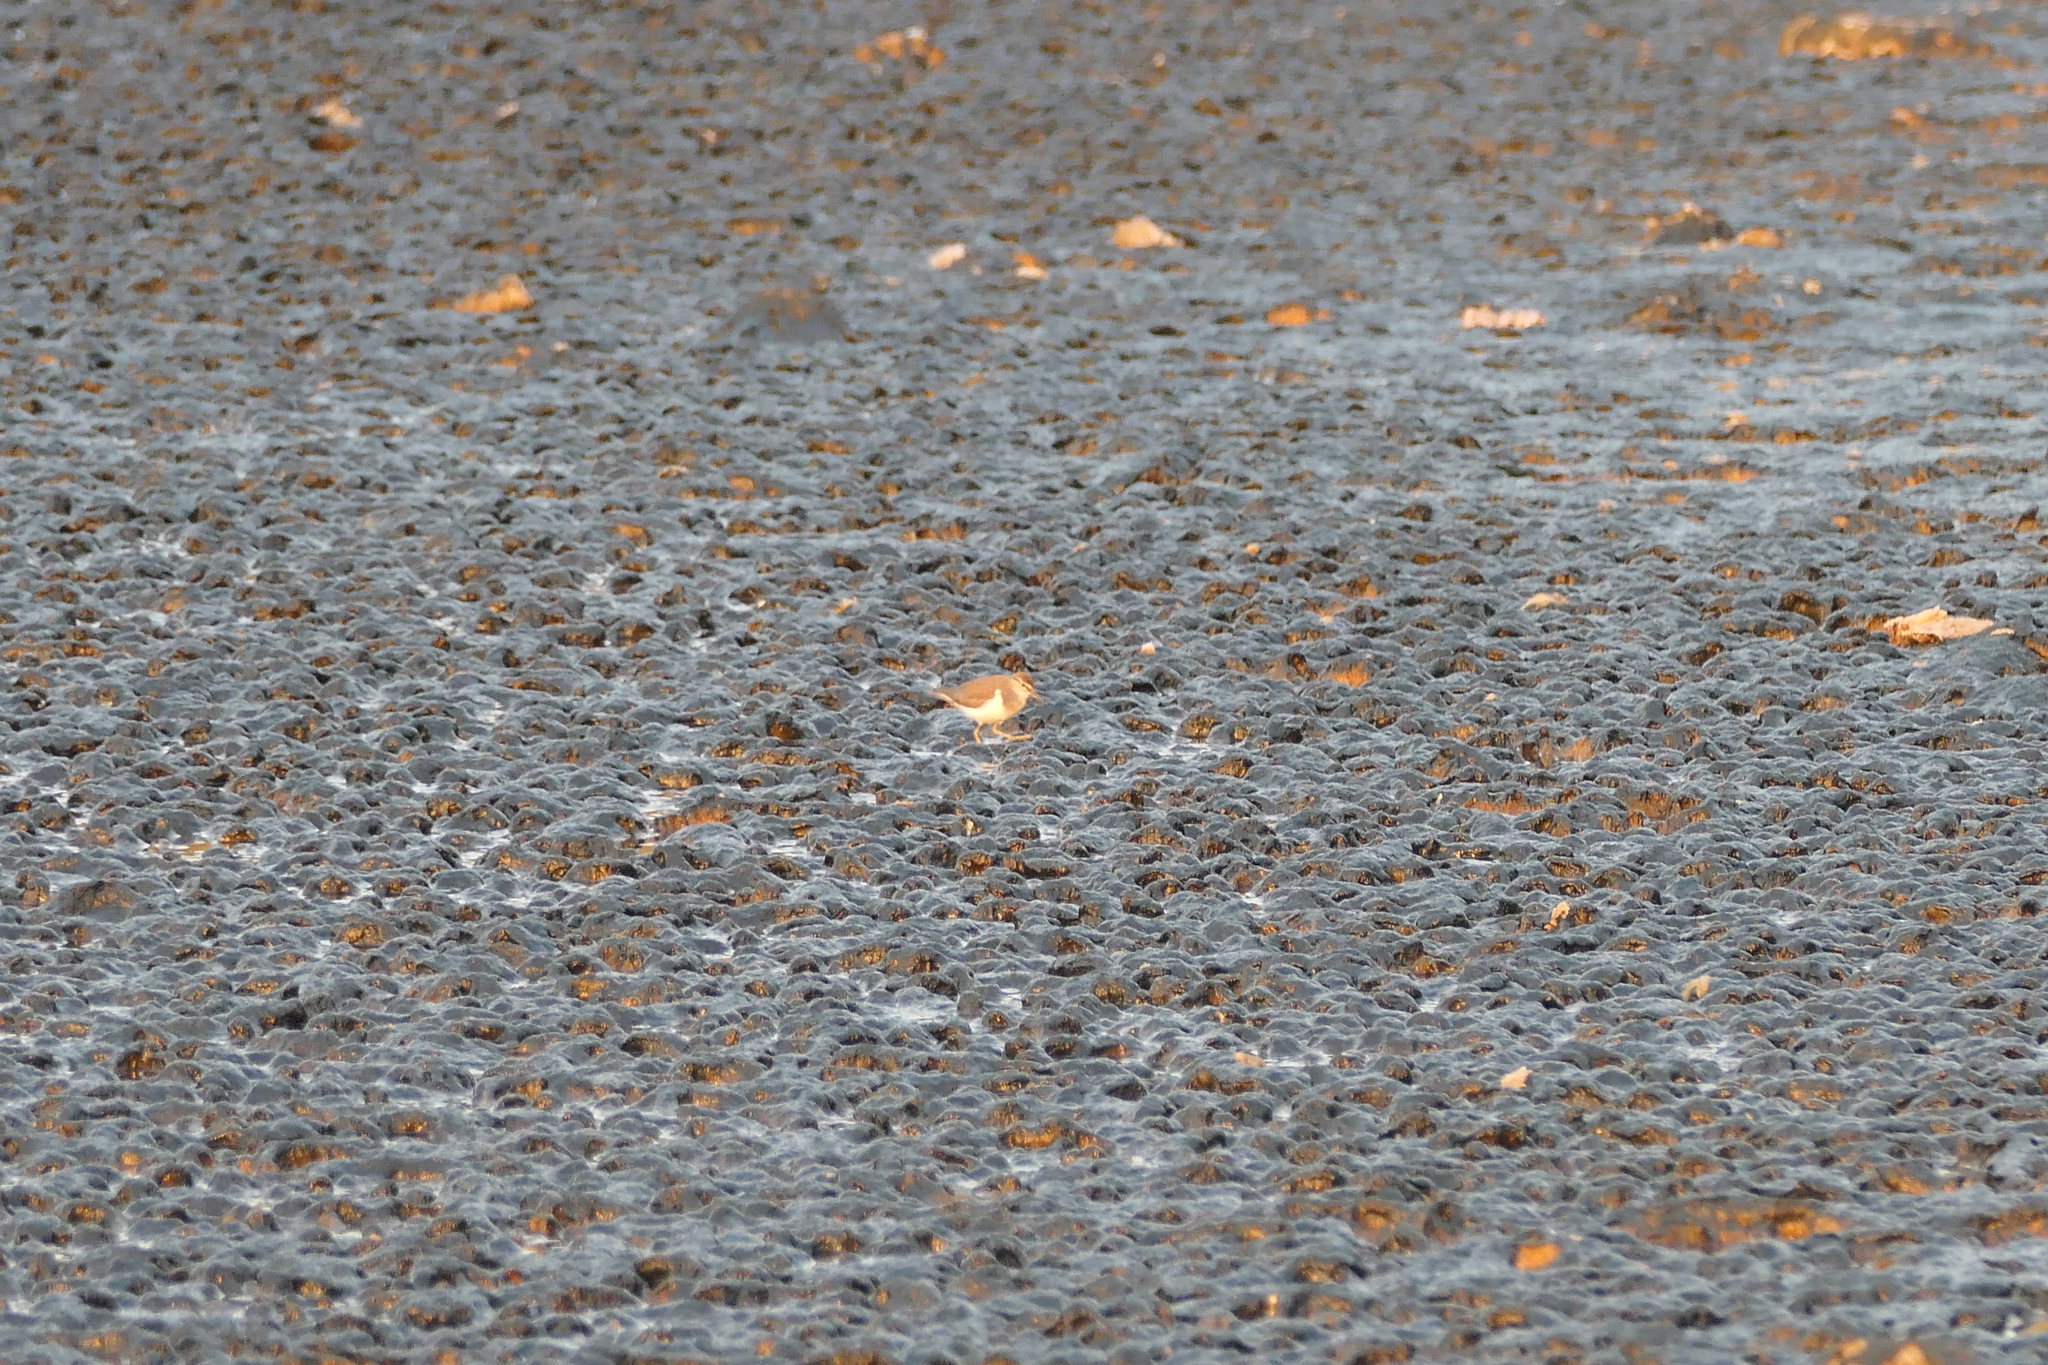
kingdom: Animalia
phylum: Chordata
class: Aves
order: Charadriiformes
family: Scolopacidae
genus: Actitis
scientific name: Actitis hypoleucos
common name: Common sandpiper
